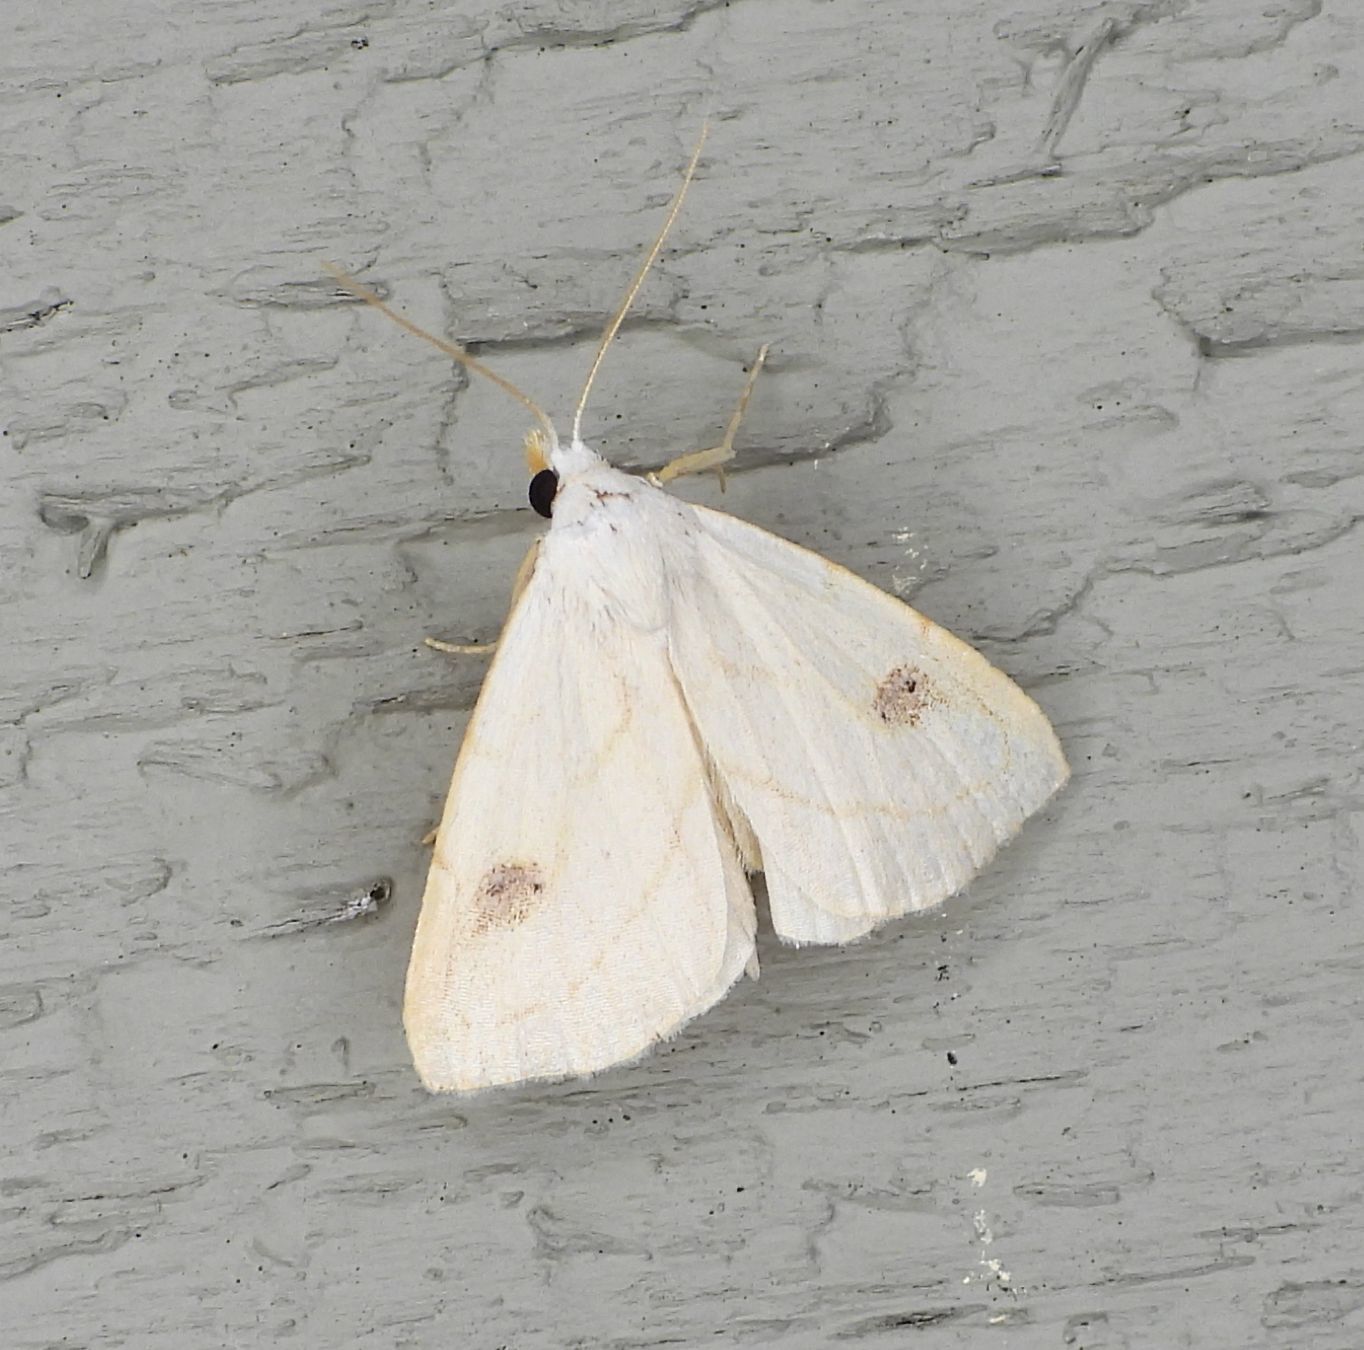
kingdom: Animalia
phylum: Arthropoda
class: Insecta
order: Lepidoptera
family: Erebidae
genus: Rivula
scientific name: Rivula propinqualis
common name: Spotted grass moth
